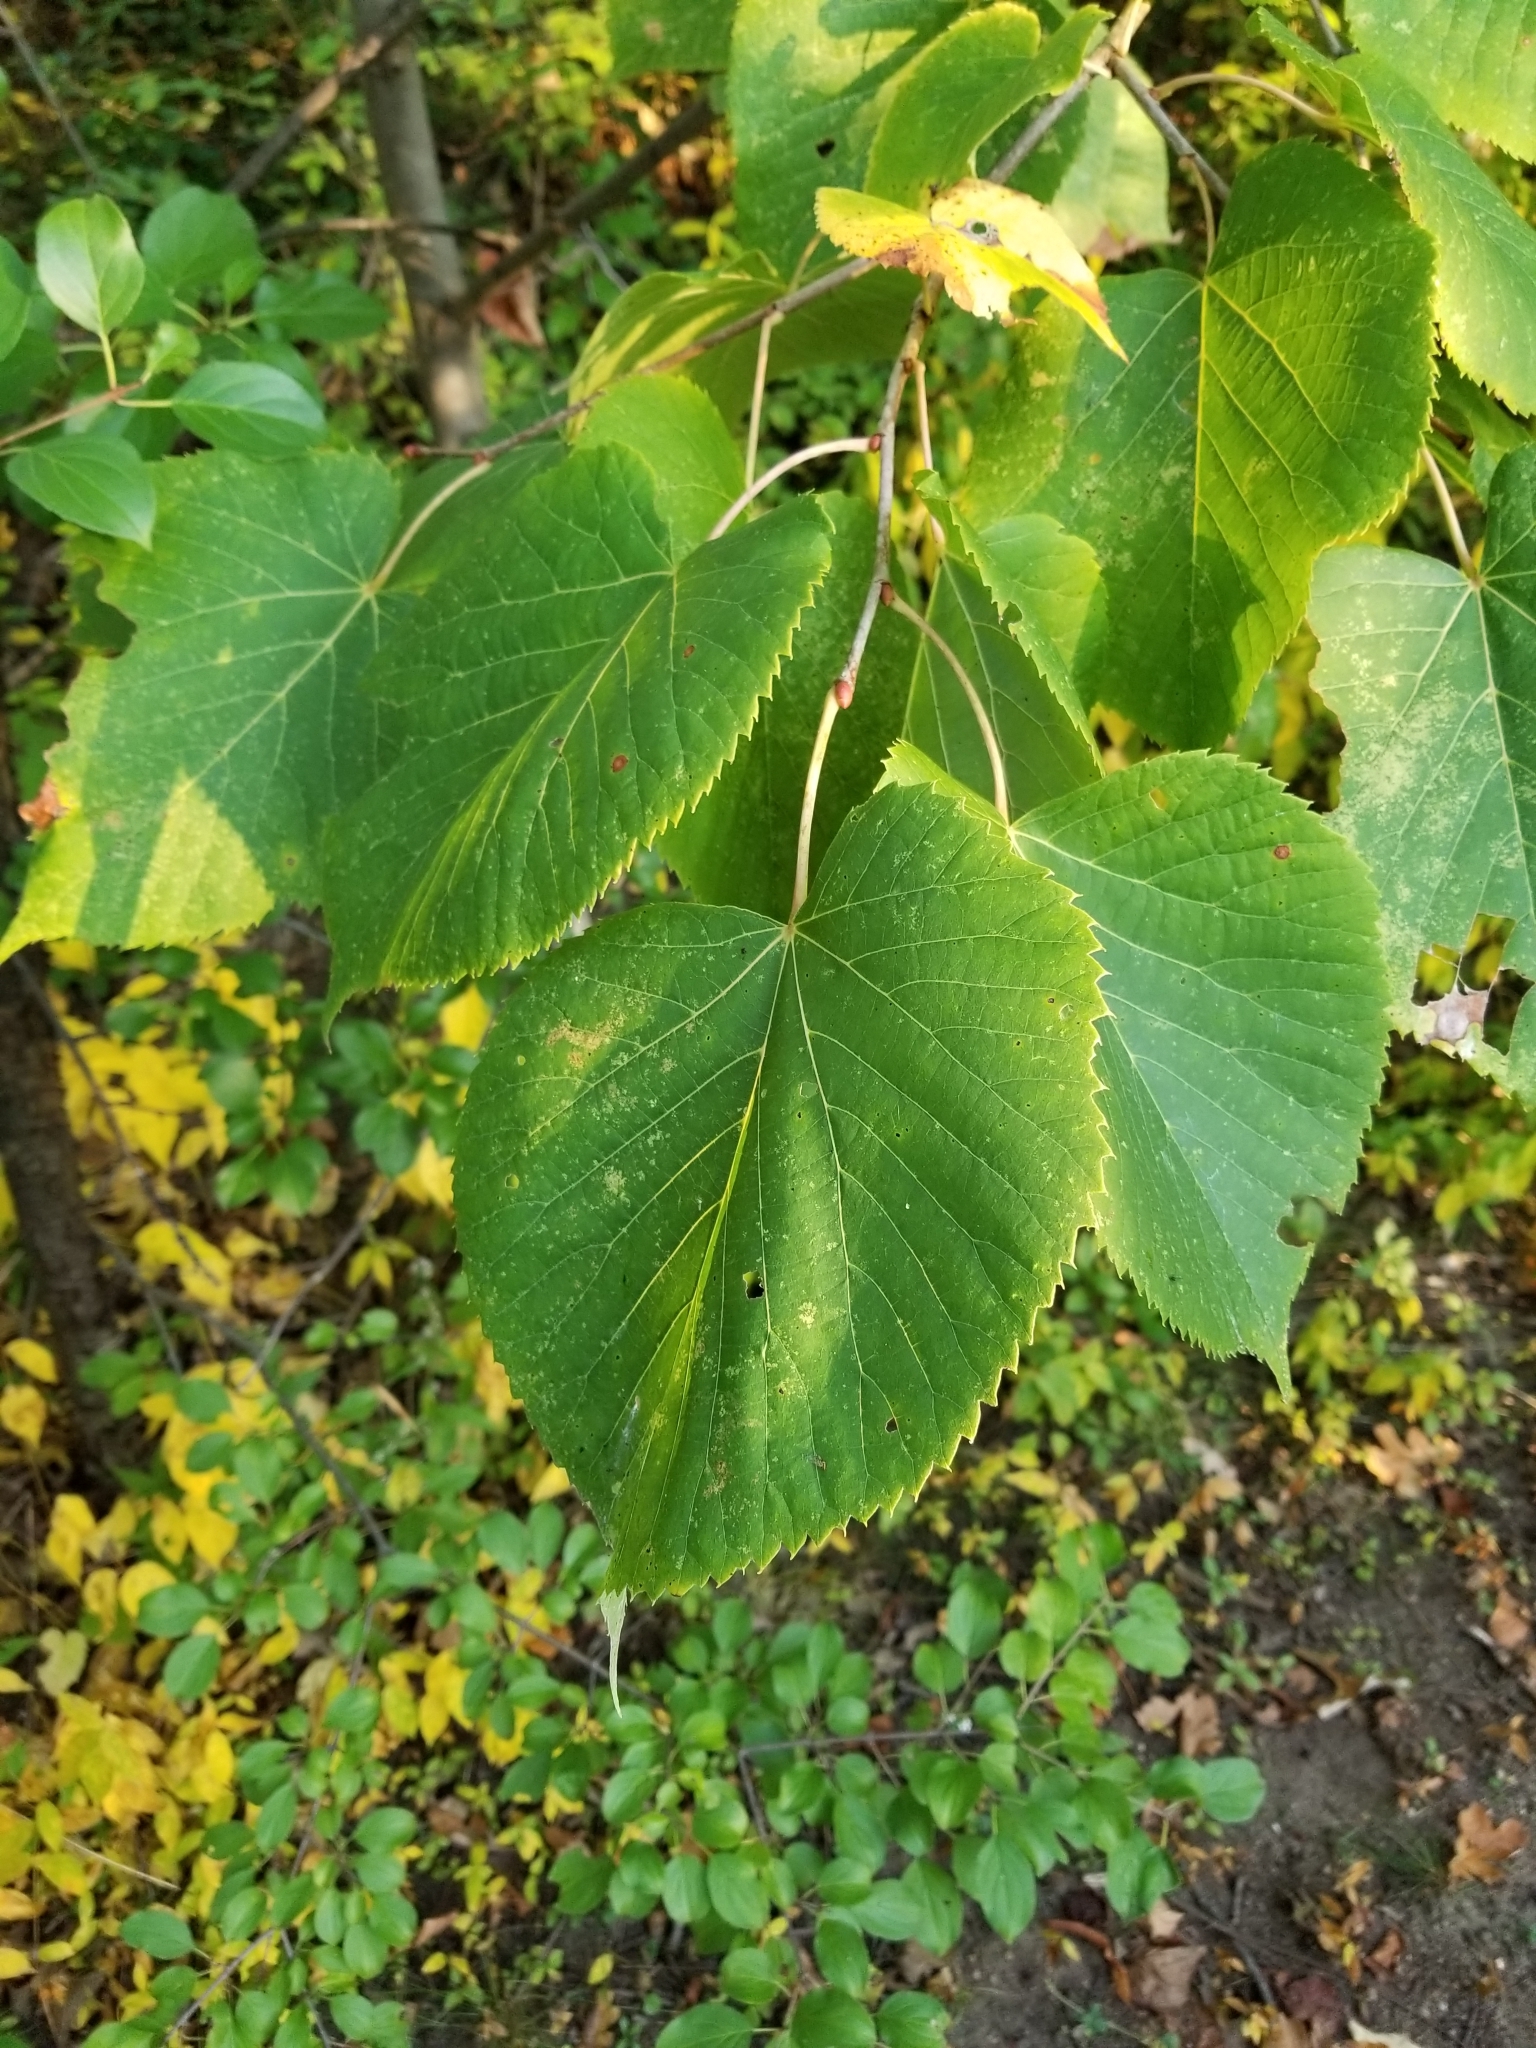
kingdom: Plantae
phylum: Tracheophyta
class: Magnoliopsida
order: Malvales
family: Malvaceae
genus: Tilia
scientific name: Tilia americana
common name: Basswood
